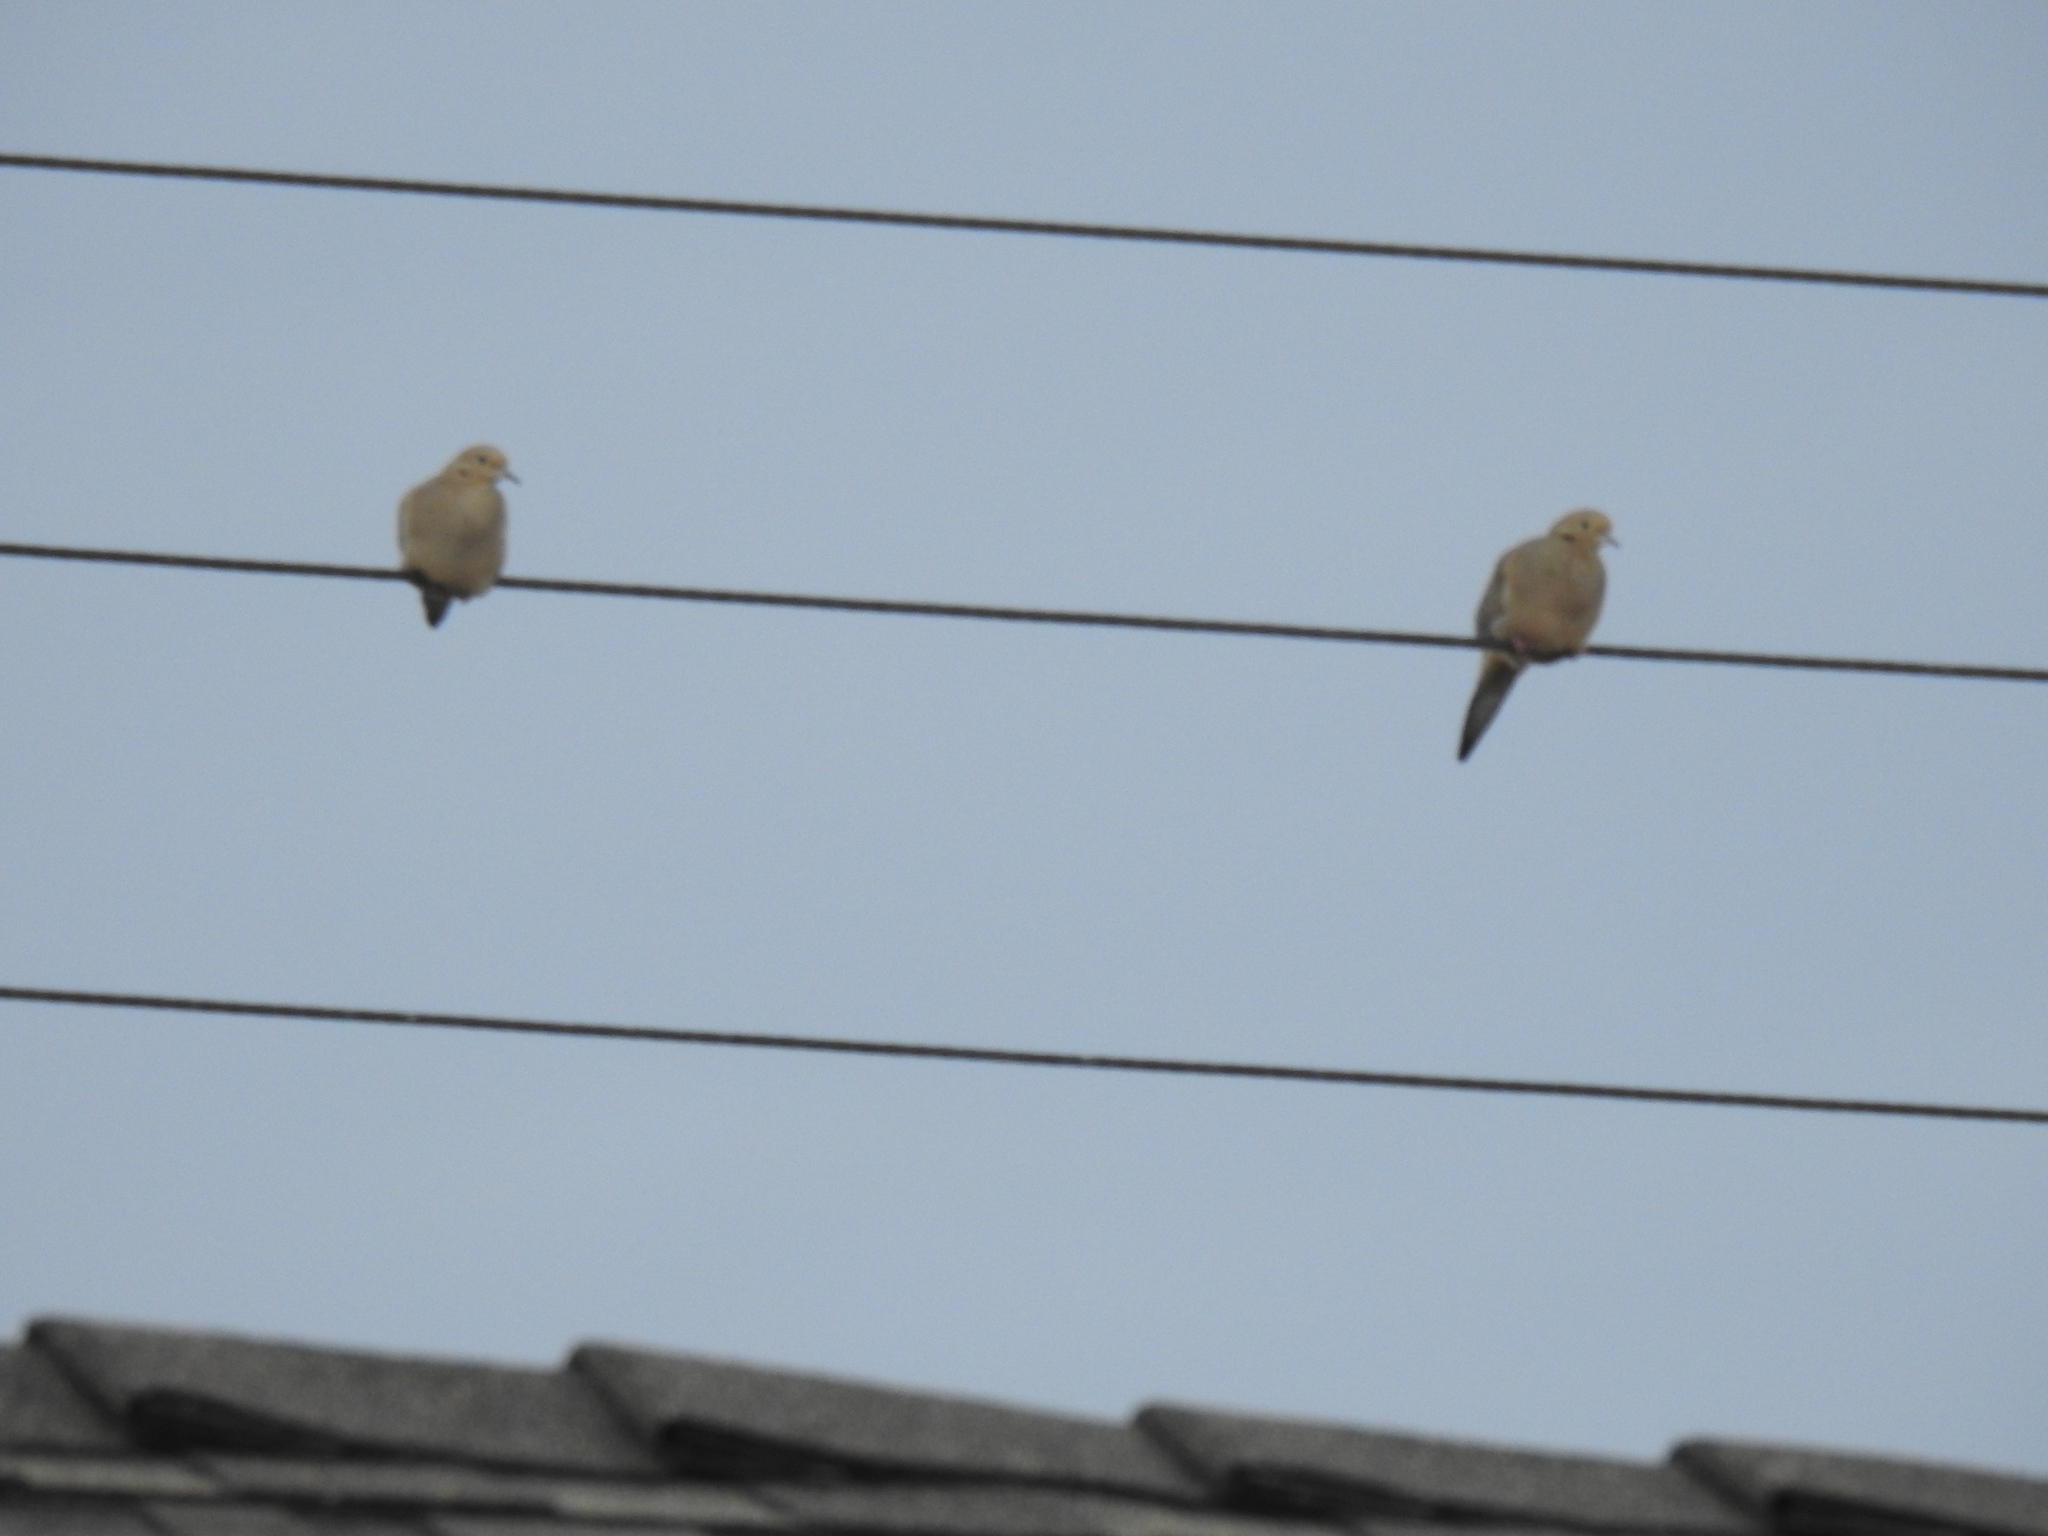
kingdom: Animalia
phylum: Chordata
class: Aves
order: Columbiformes
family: Columbidae
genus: Zenaida
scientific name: Zenaida macroura
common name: Mourning dove
